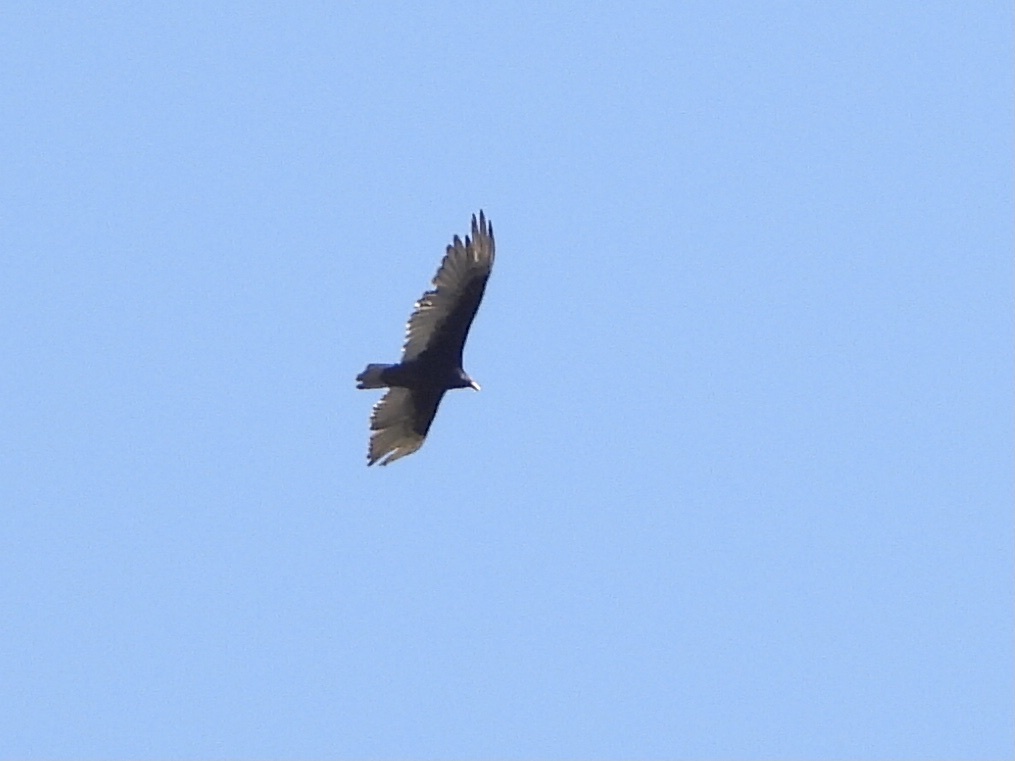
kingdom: Animalia
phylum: Chordata
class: Aves
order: Accipitriformes
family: Cathartidae
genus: Cathartes
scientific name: Cathartes aura
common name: Turkey vulture
